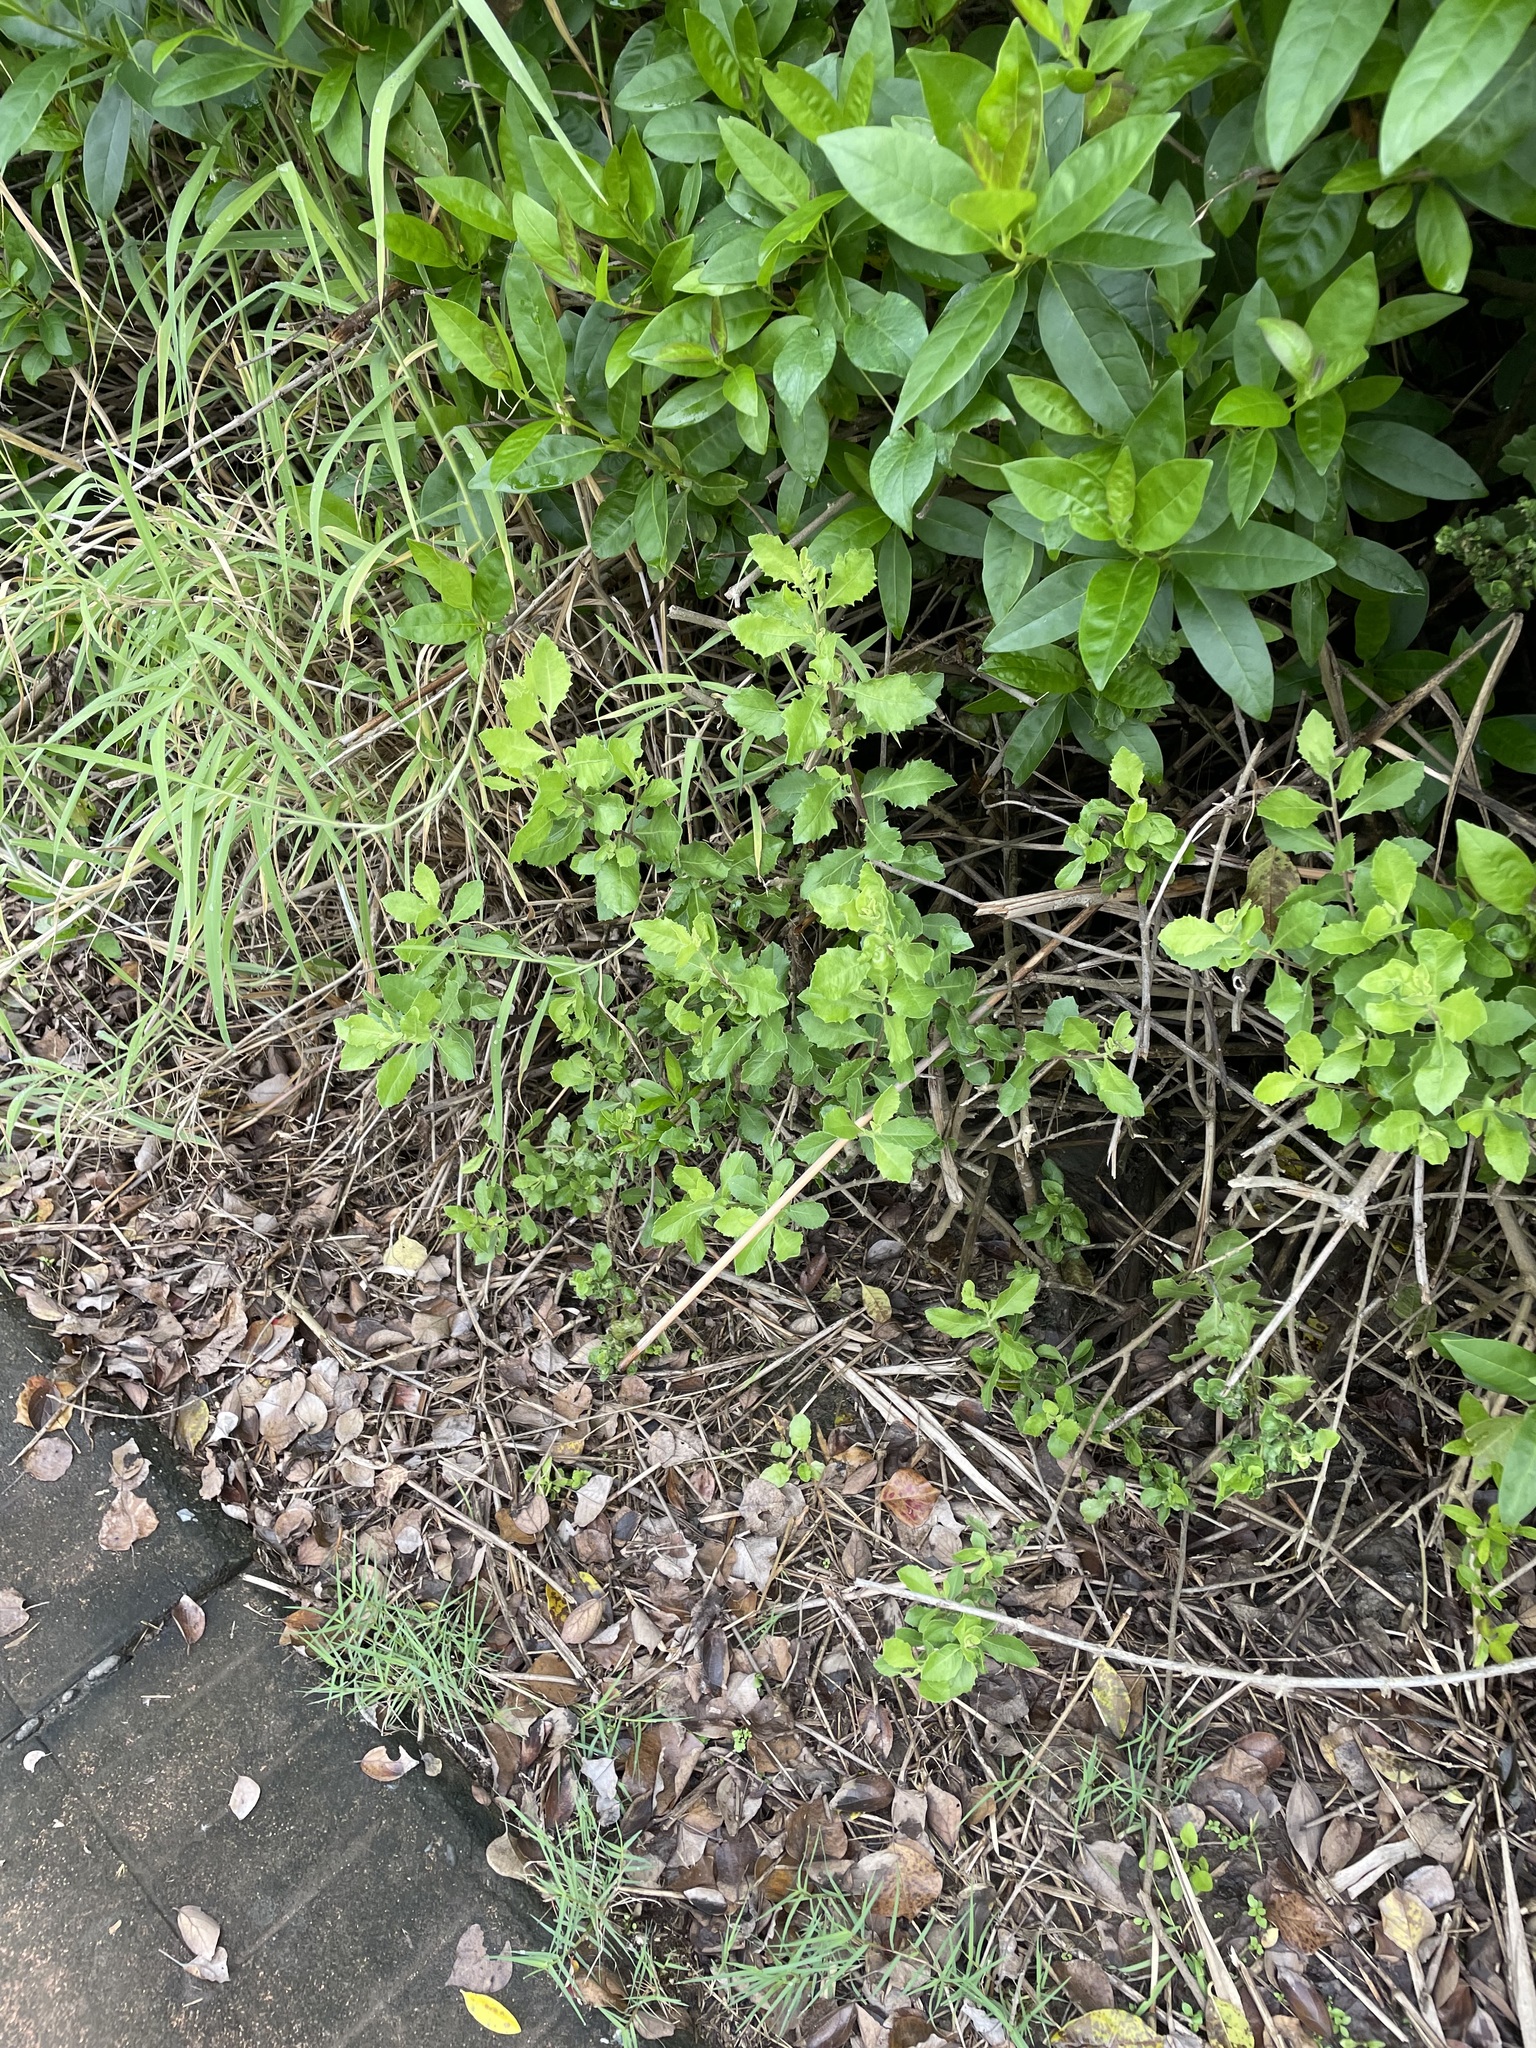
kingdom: Plantae
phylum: Tracheophyta
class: Magnoliopsida
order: Asterales
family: Asteraceae
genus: Pluchea
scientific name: Pluchea indica
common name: Indian fleabane
